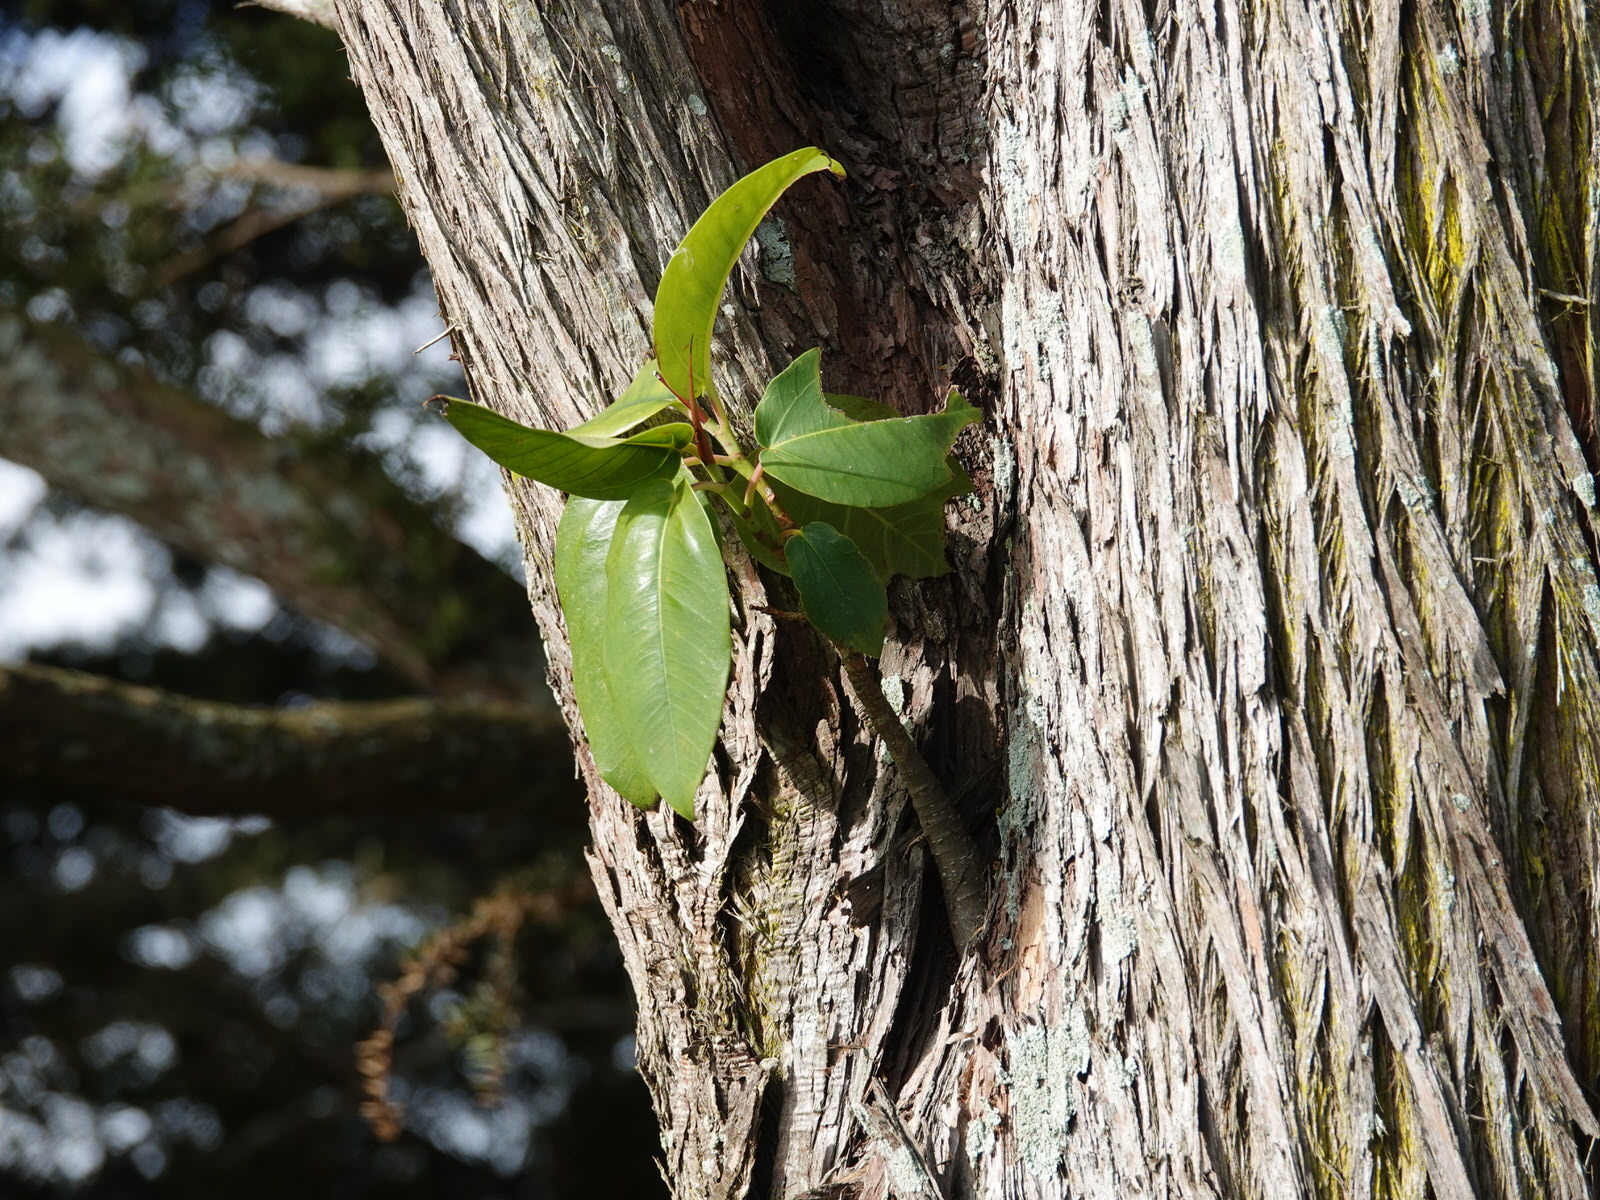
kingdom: Plantae
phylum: Tracheophyta
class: Magnoliopsida
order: Rosales
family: Moraceae
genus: Ficus
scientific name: Ficus macrophylla
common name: Moreton bay fig
